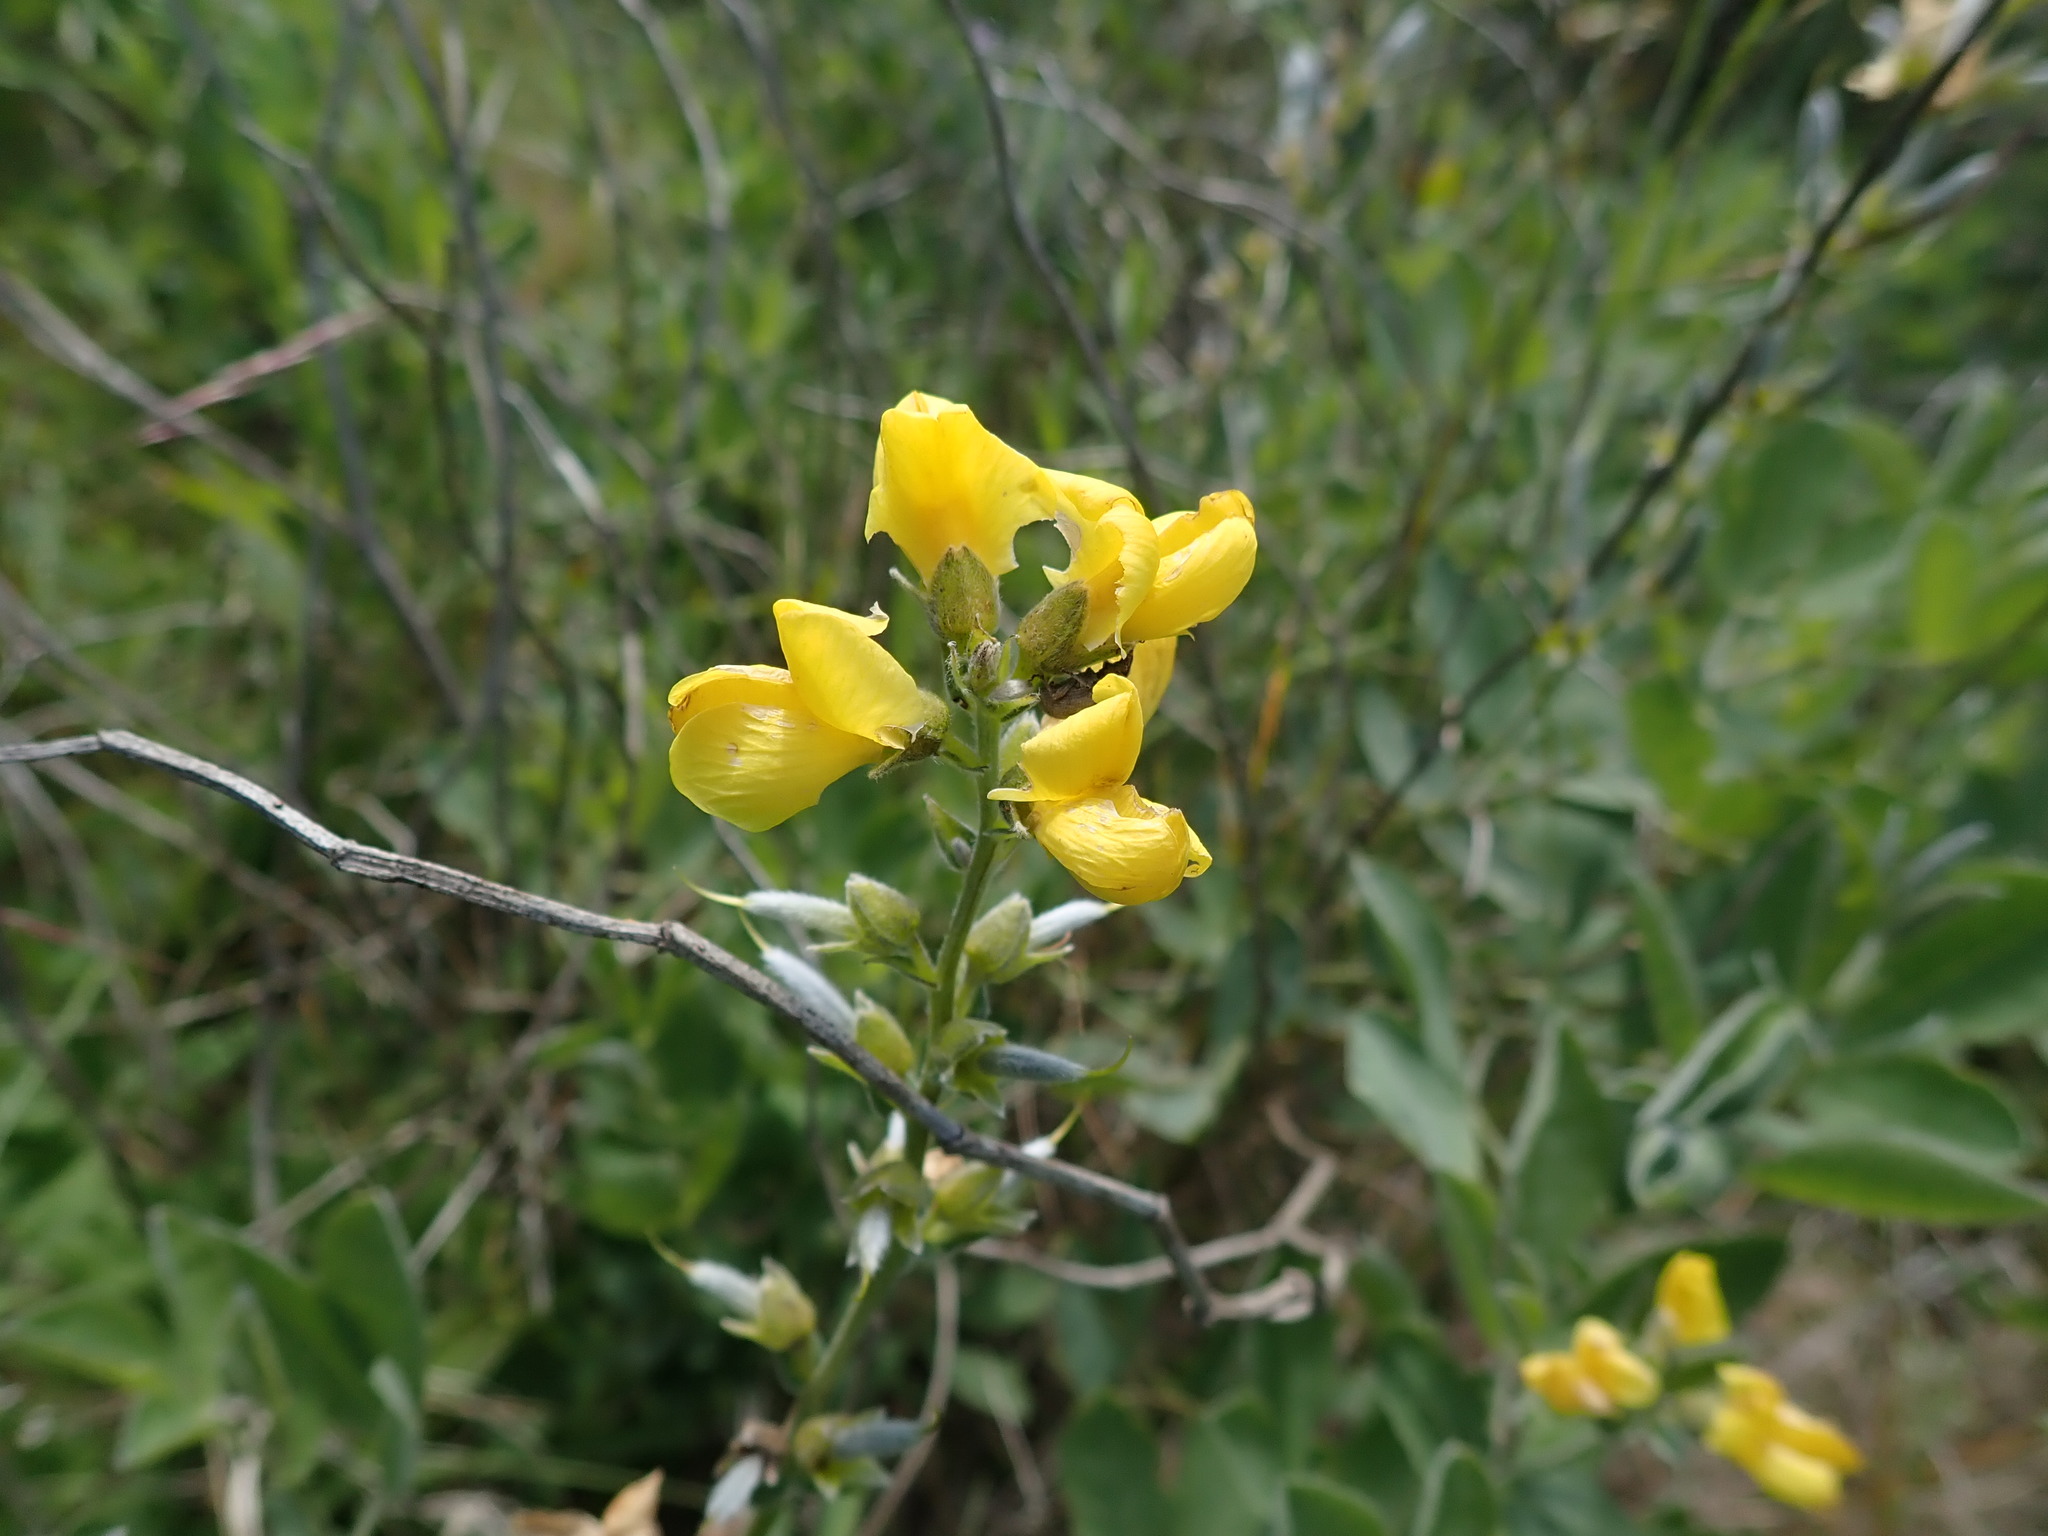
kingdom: Plantae
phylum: Tracheophyta
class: Magnoliopsida
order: Fabales
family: Fabaceae
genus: Thermopsis
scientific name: Thermopsis californica
